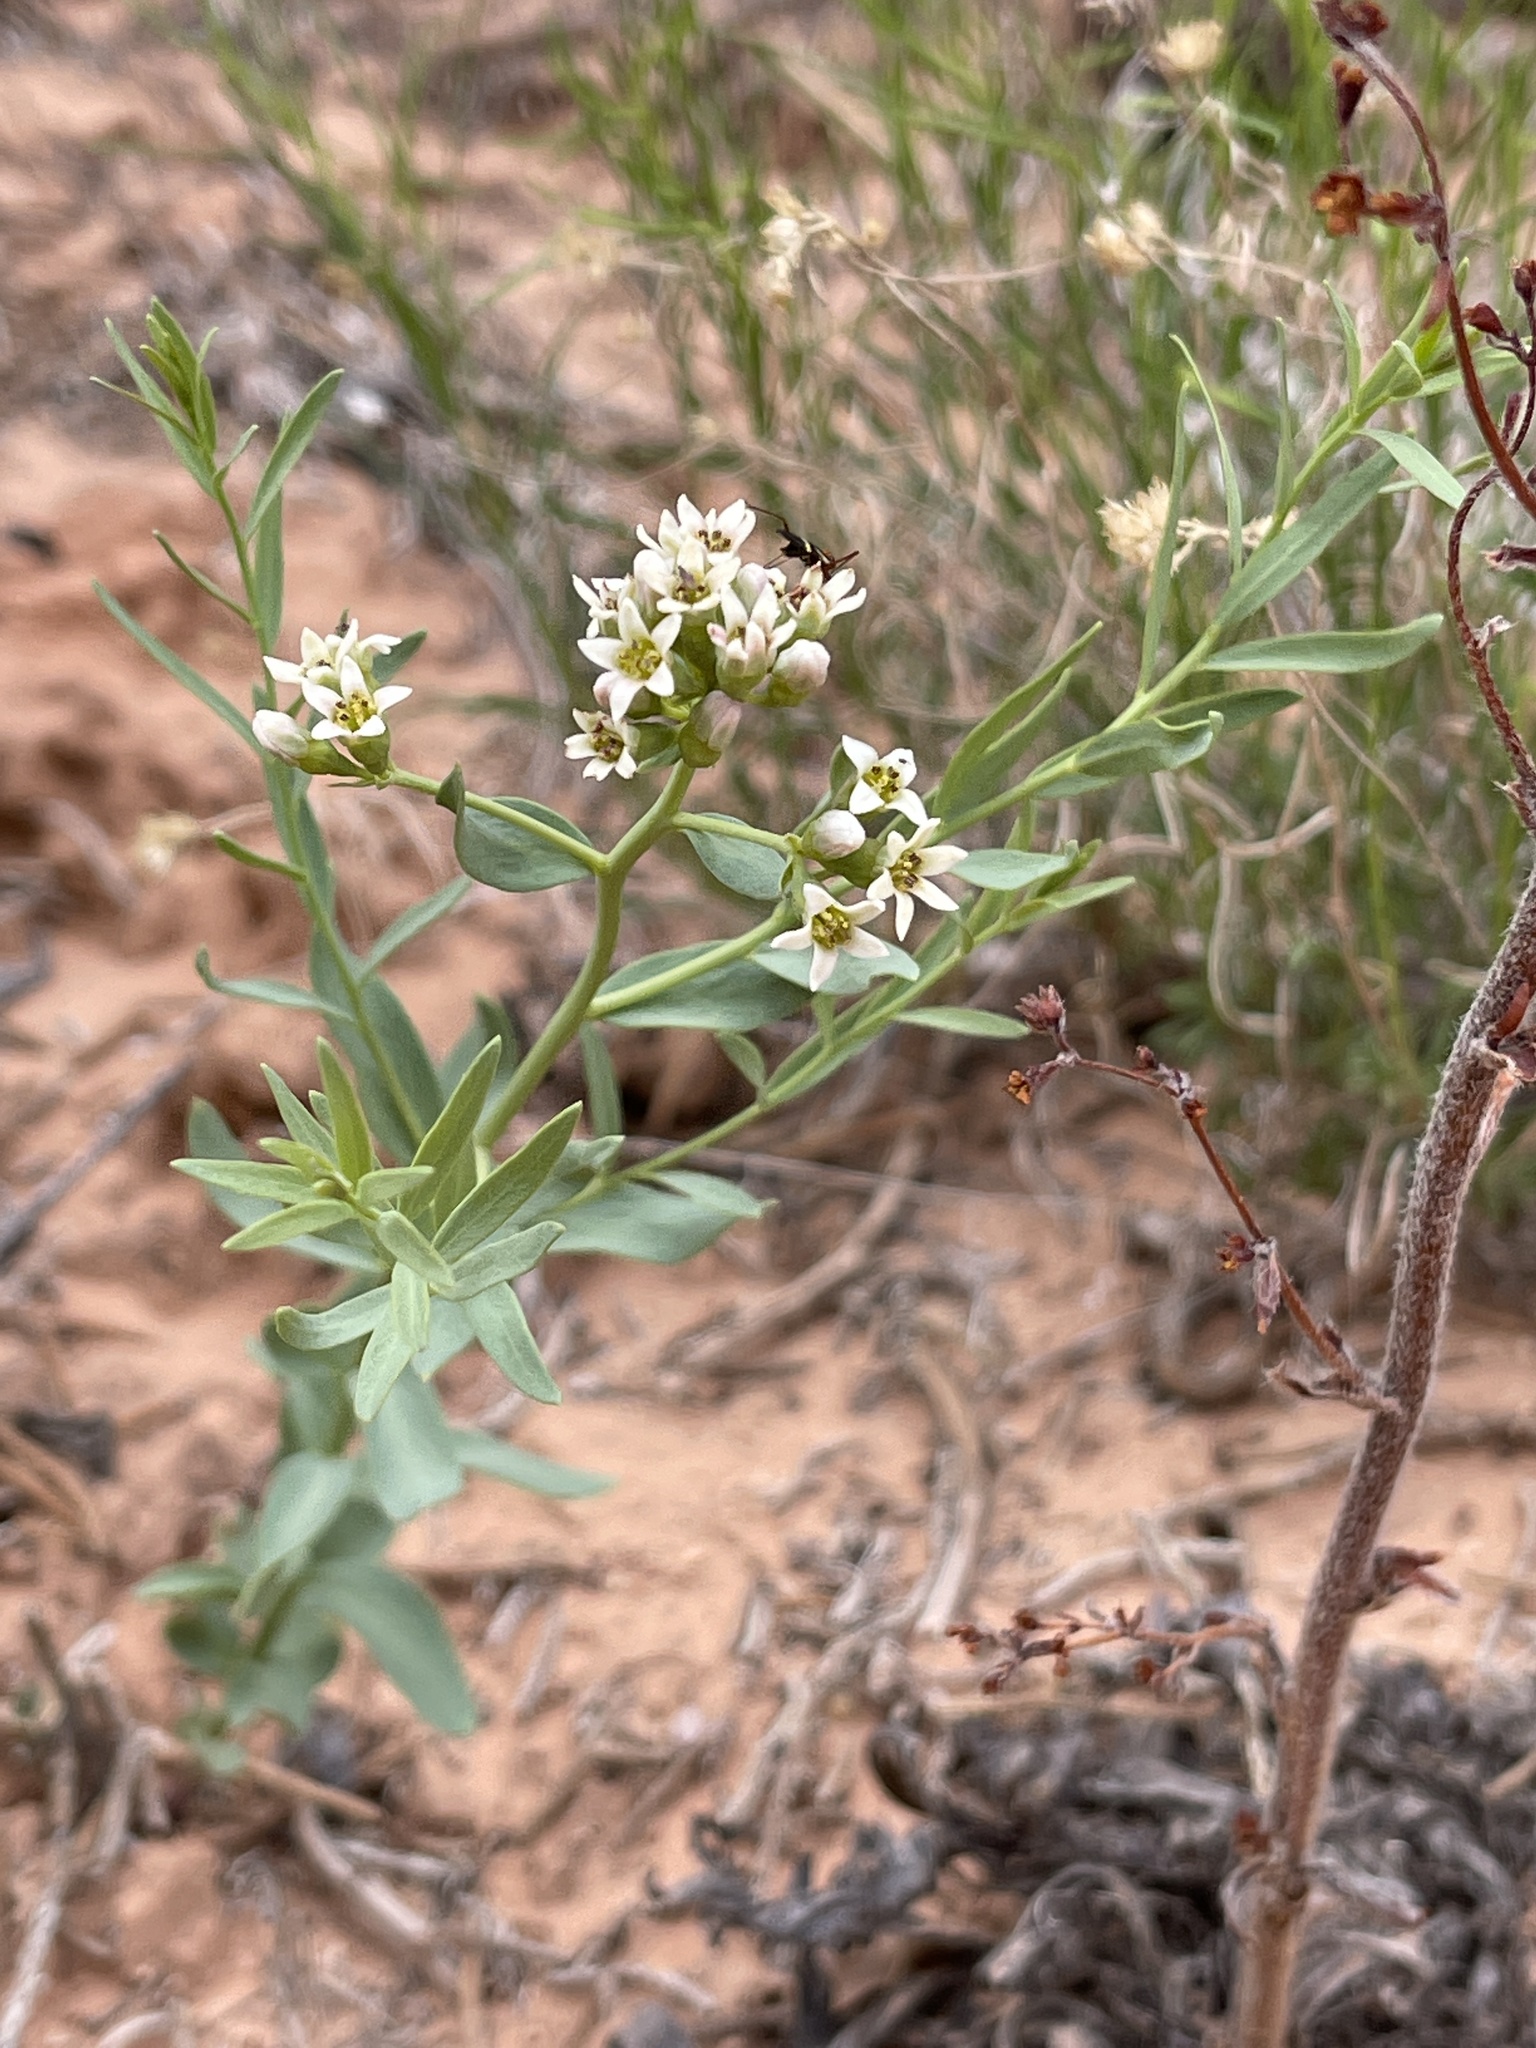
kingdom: Plantae
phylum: Tracheophyta
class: Magnoliopsida
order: Santalales
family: Comandraceae
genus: Comandra
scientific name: Comandra umbellata
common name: Bastard toadflax
